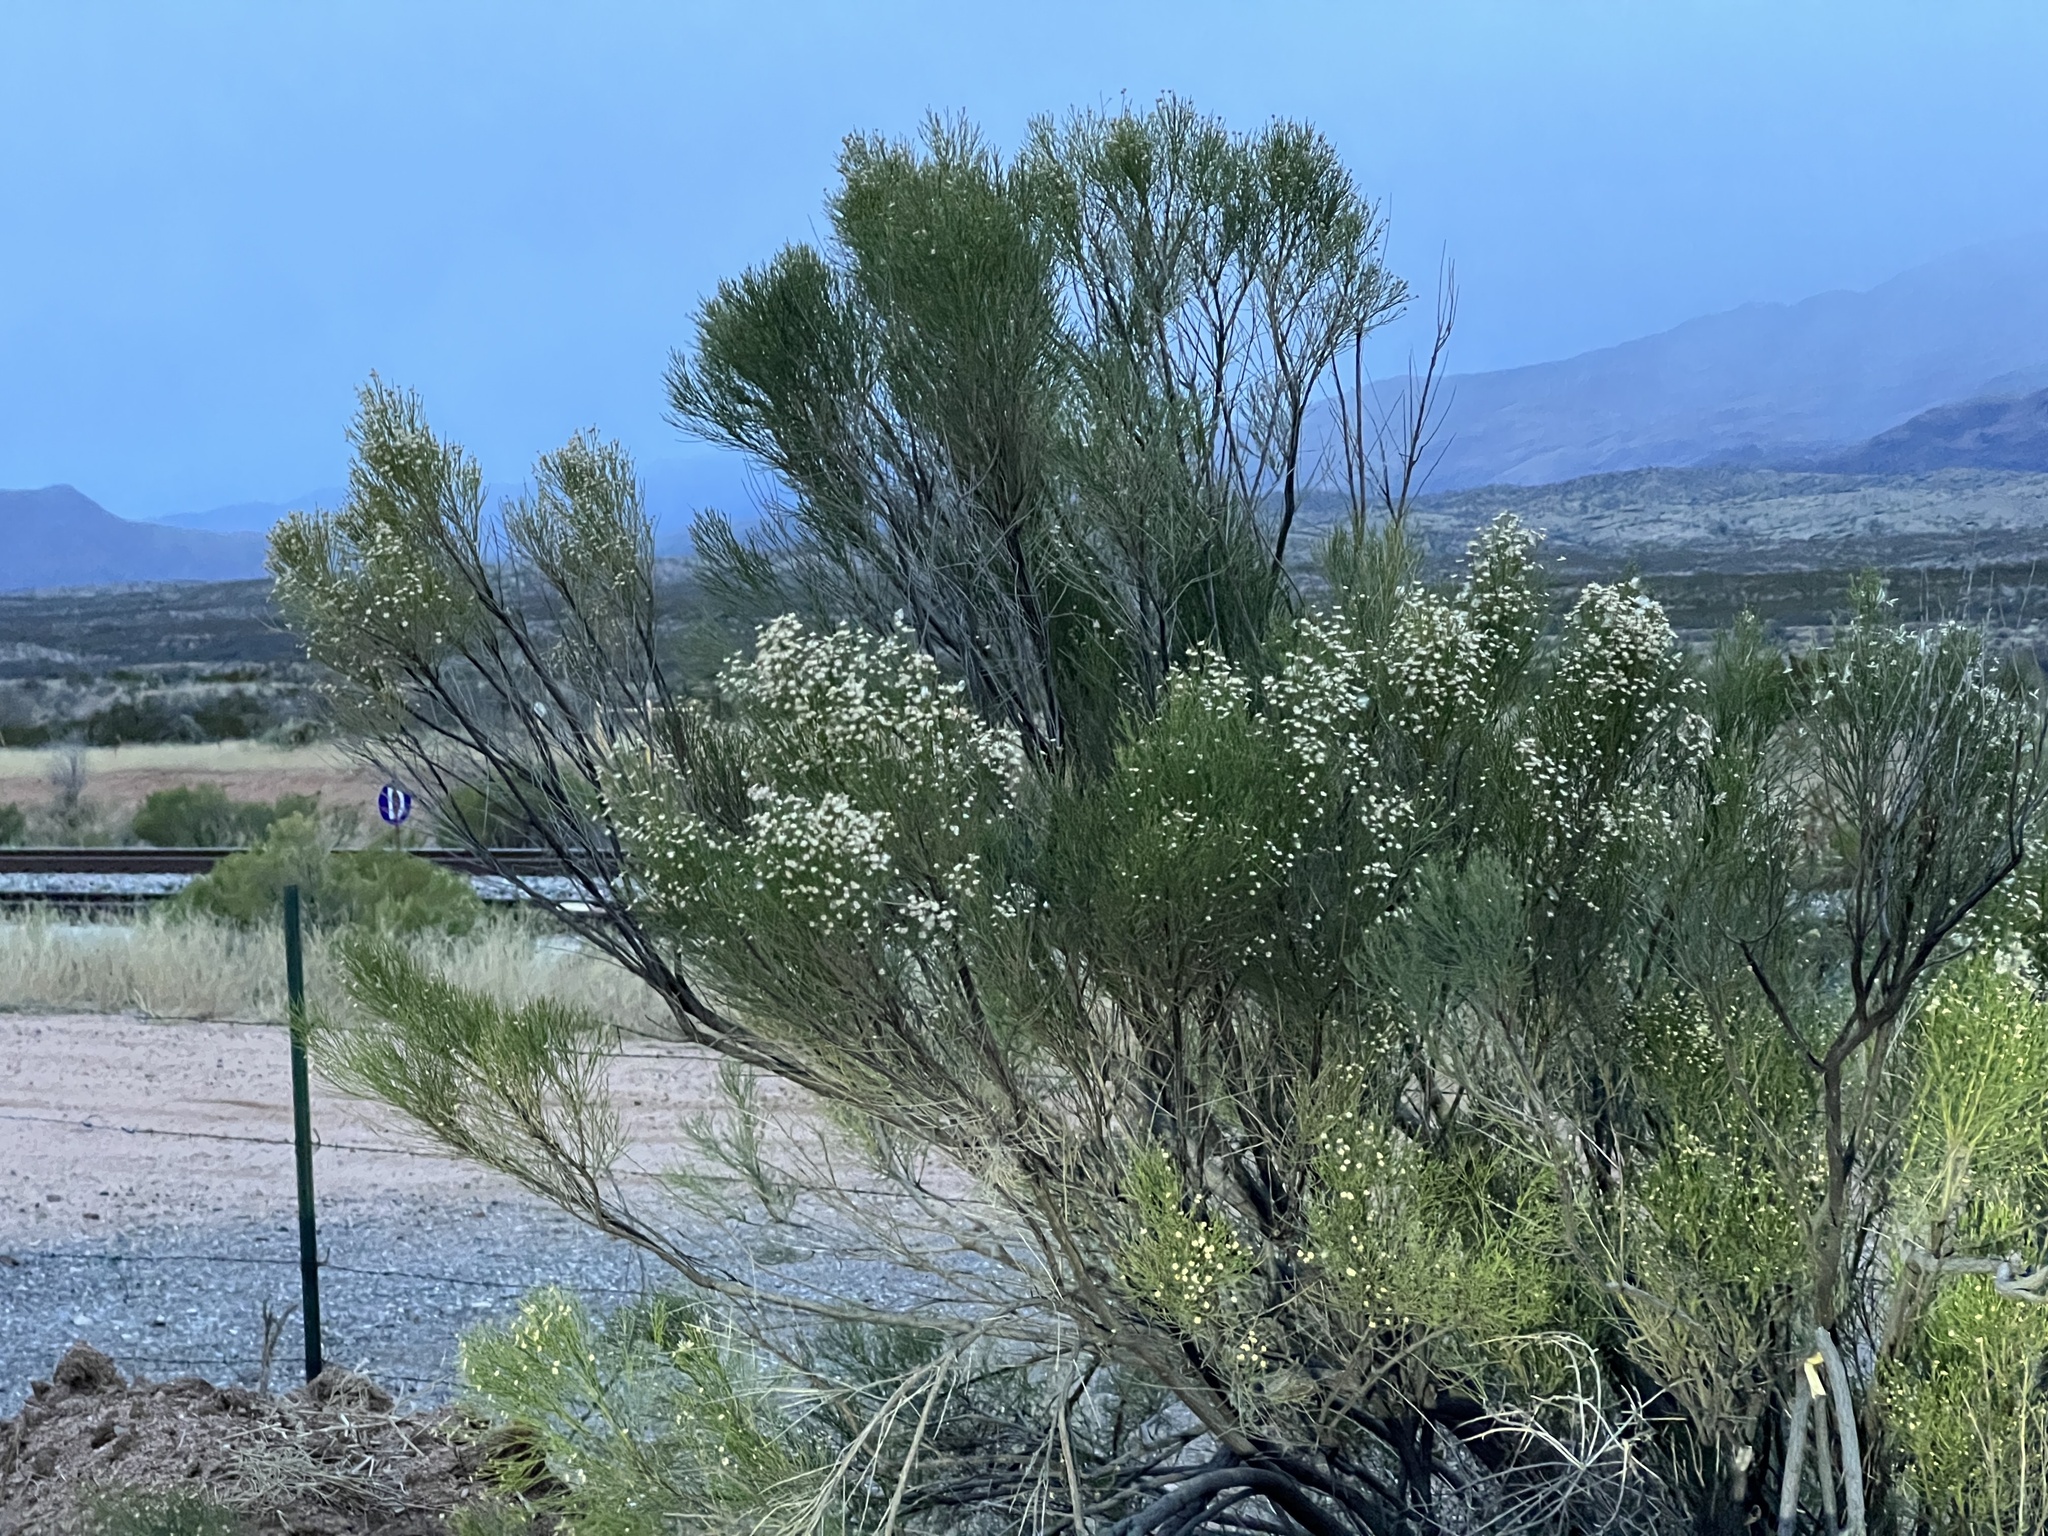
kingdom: Plantae
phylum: Tracheophyta
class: Magnoliopsida
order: Asterales
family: Asteraceae
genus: Baccharis
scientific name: Baccharis sarothroides
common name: Desert-broom
